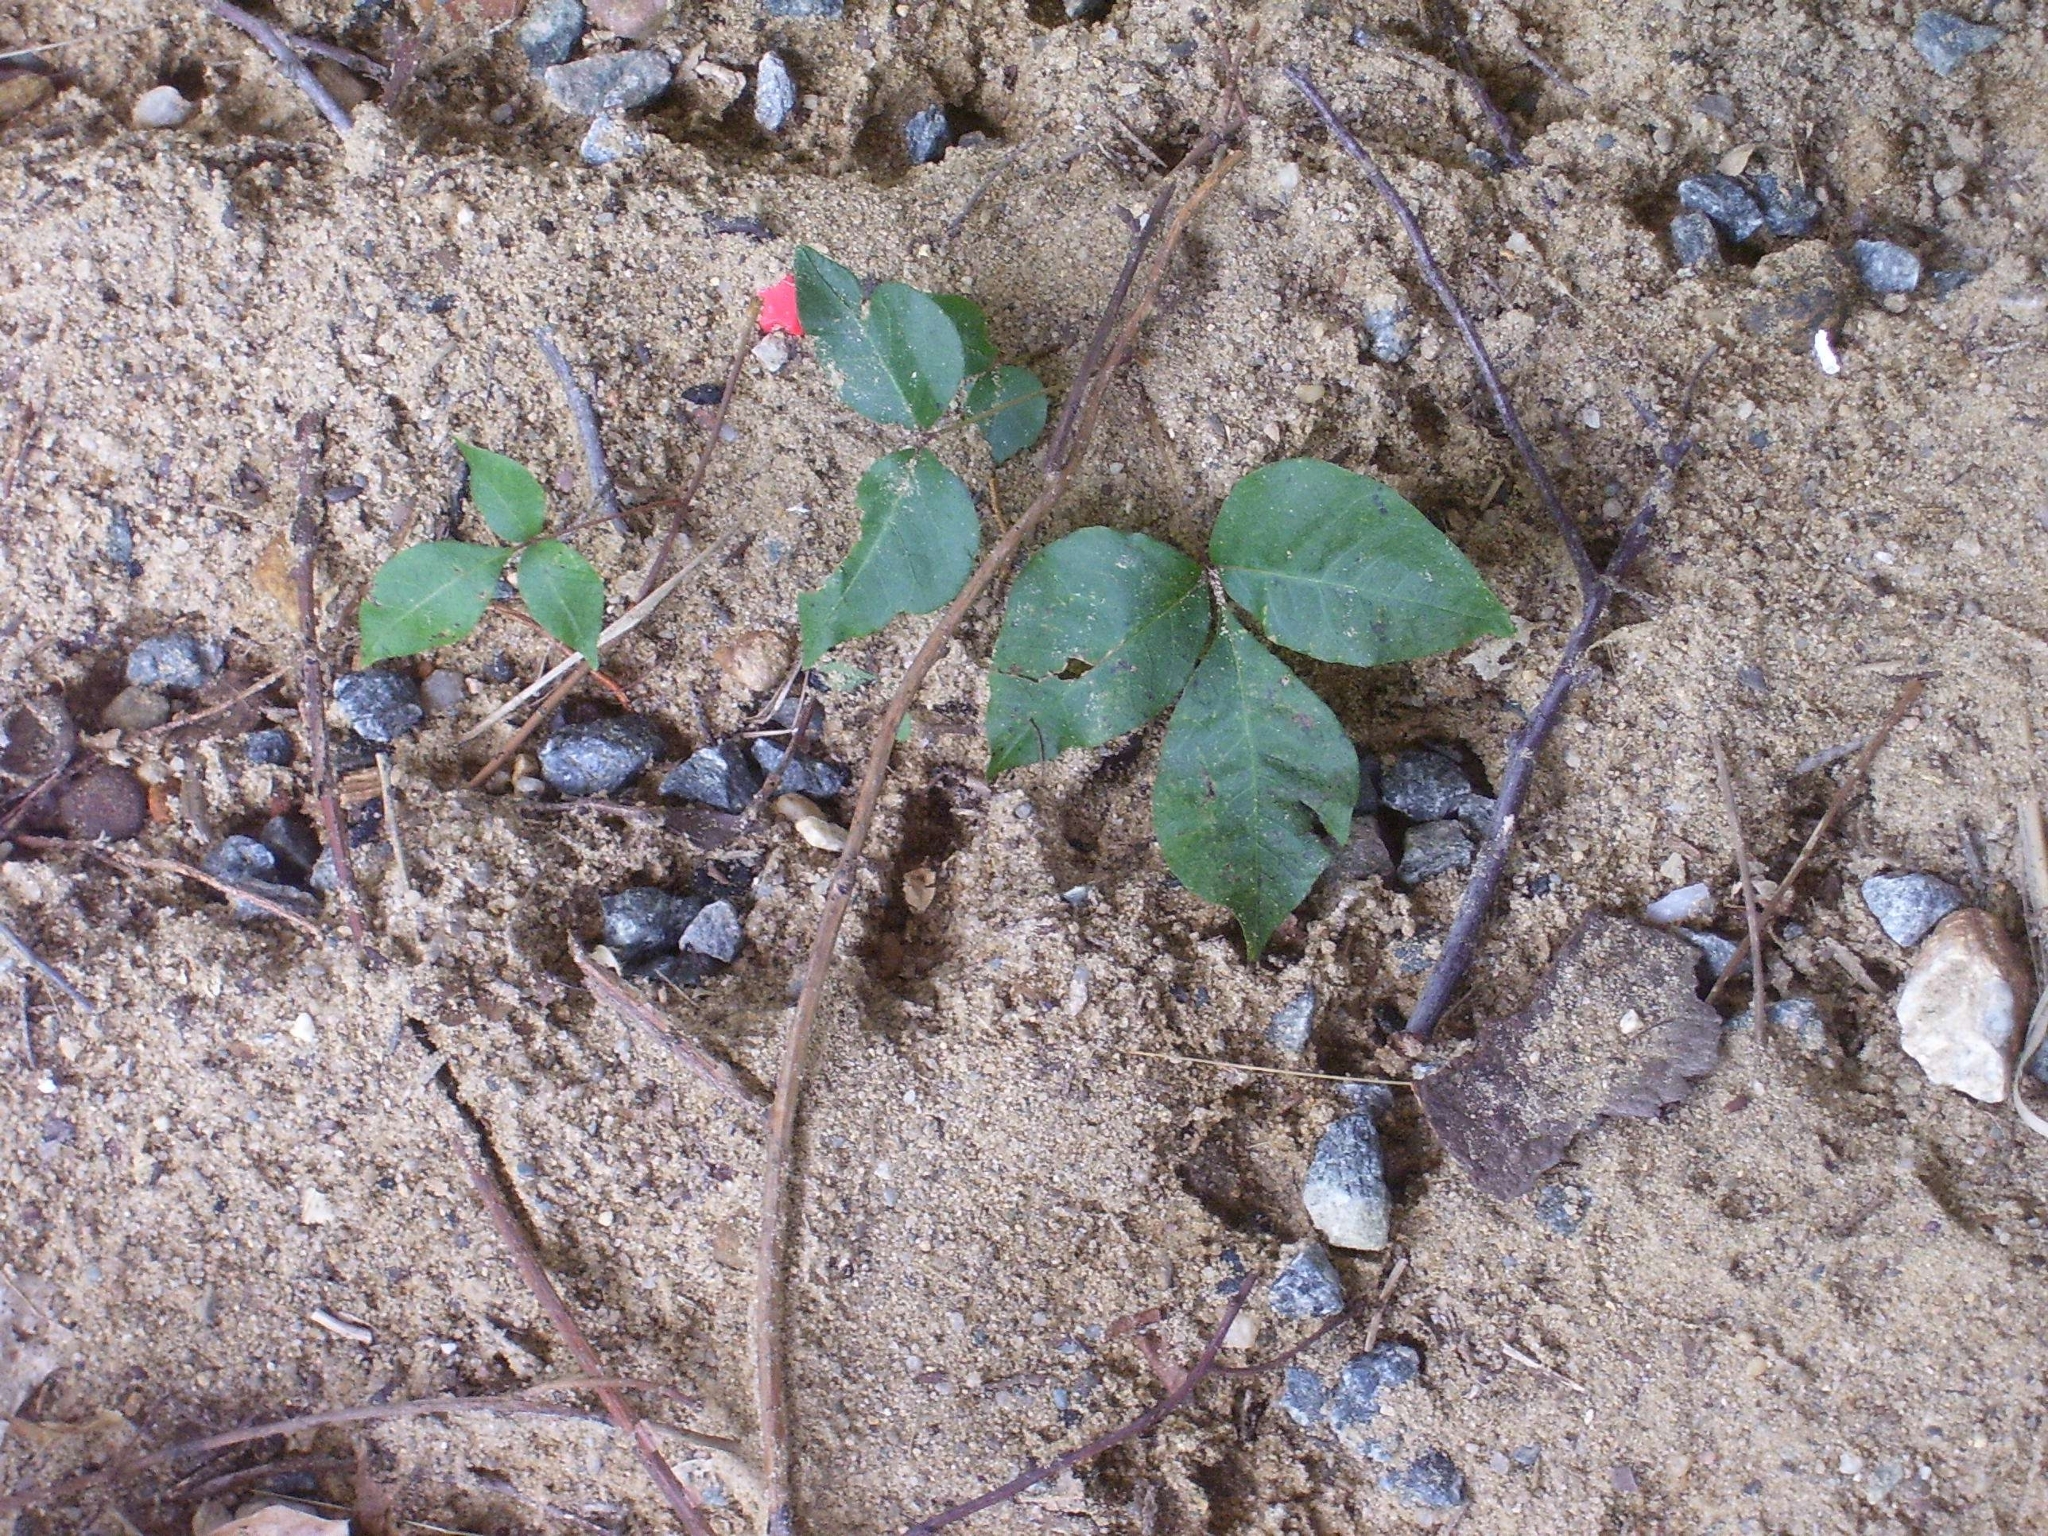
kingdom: Plantae
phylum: Tracheophyta
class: Magnoliopsida
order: Sapindales
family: Anacardiaceae
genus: Toxicodendron
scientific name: Toxicodendron radicans
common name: Poison ivy
